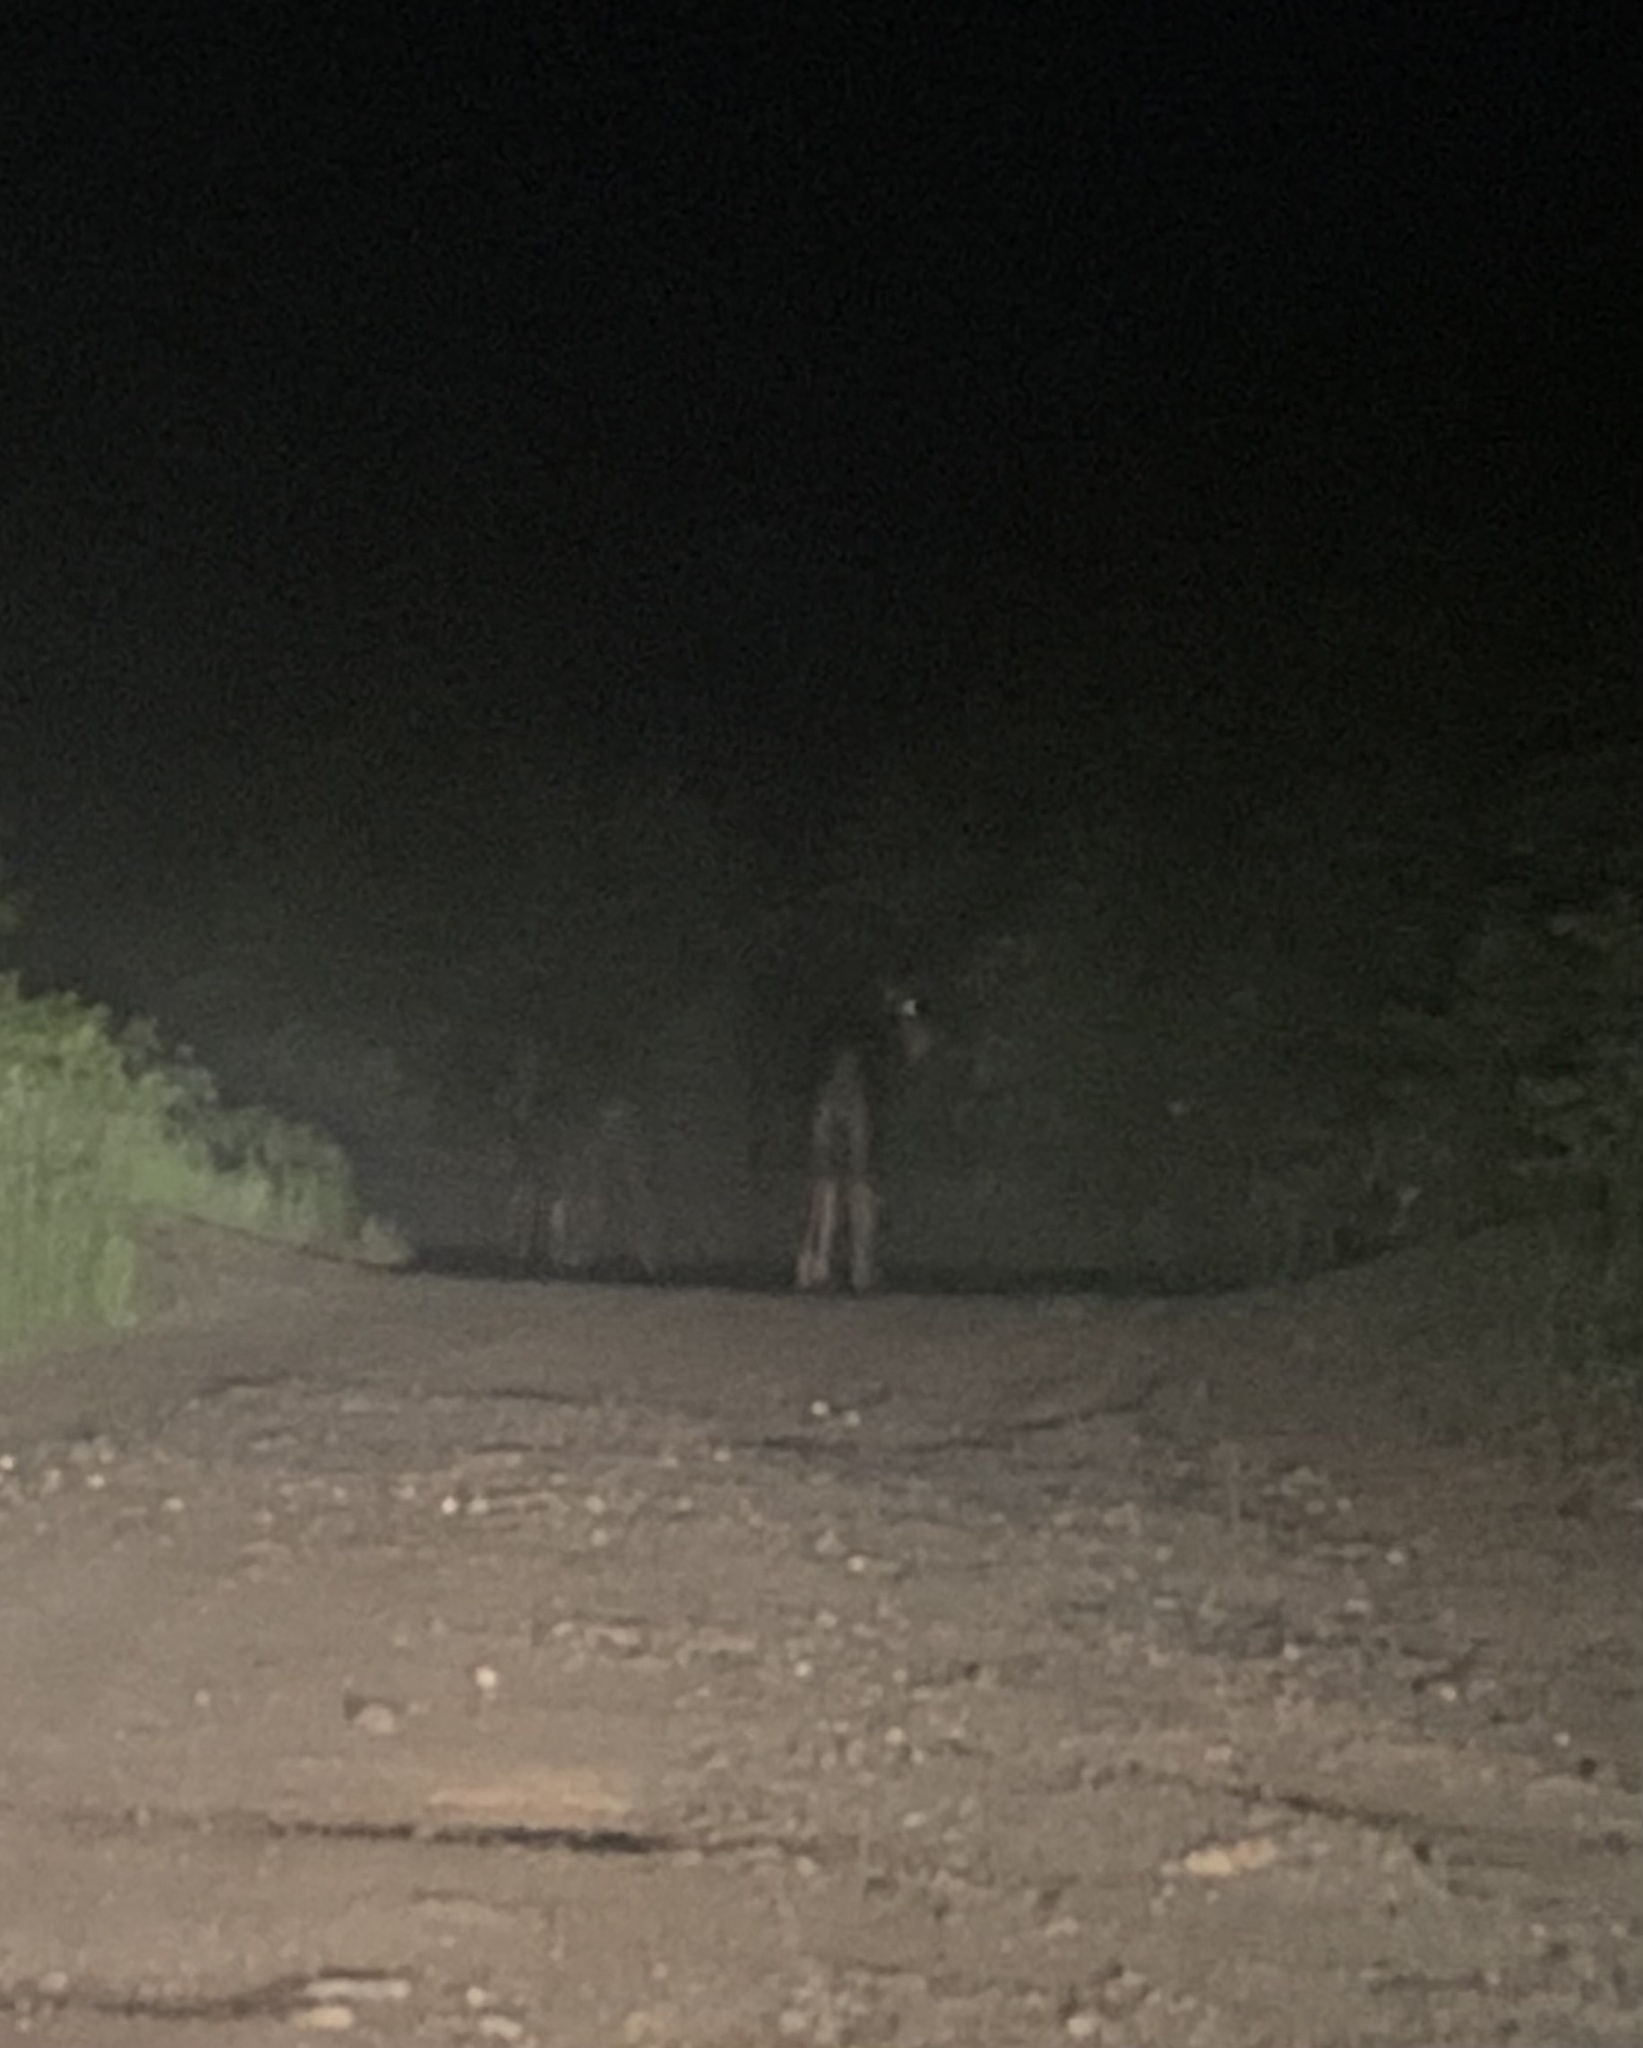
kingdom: Animalia
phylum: Chordata
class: Mammalia
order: Artiodactyla
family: Cervidae
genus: Alces
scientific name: Alces alces
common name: Moose
